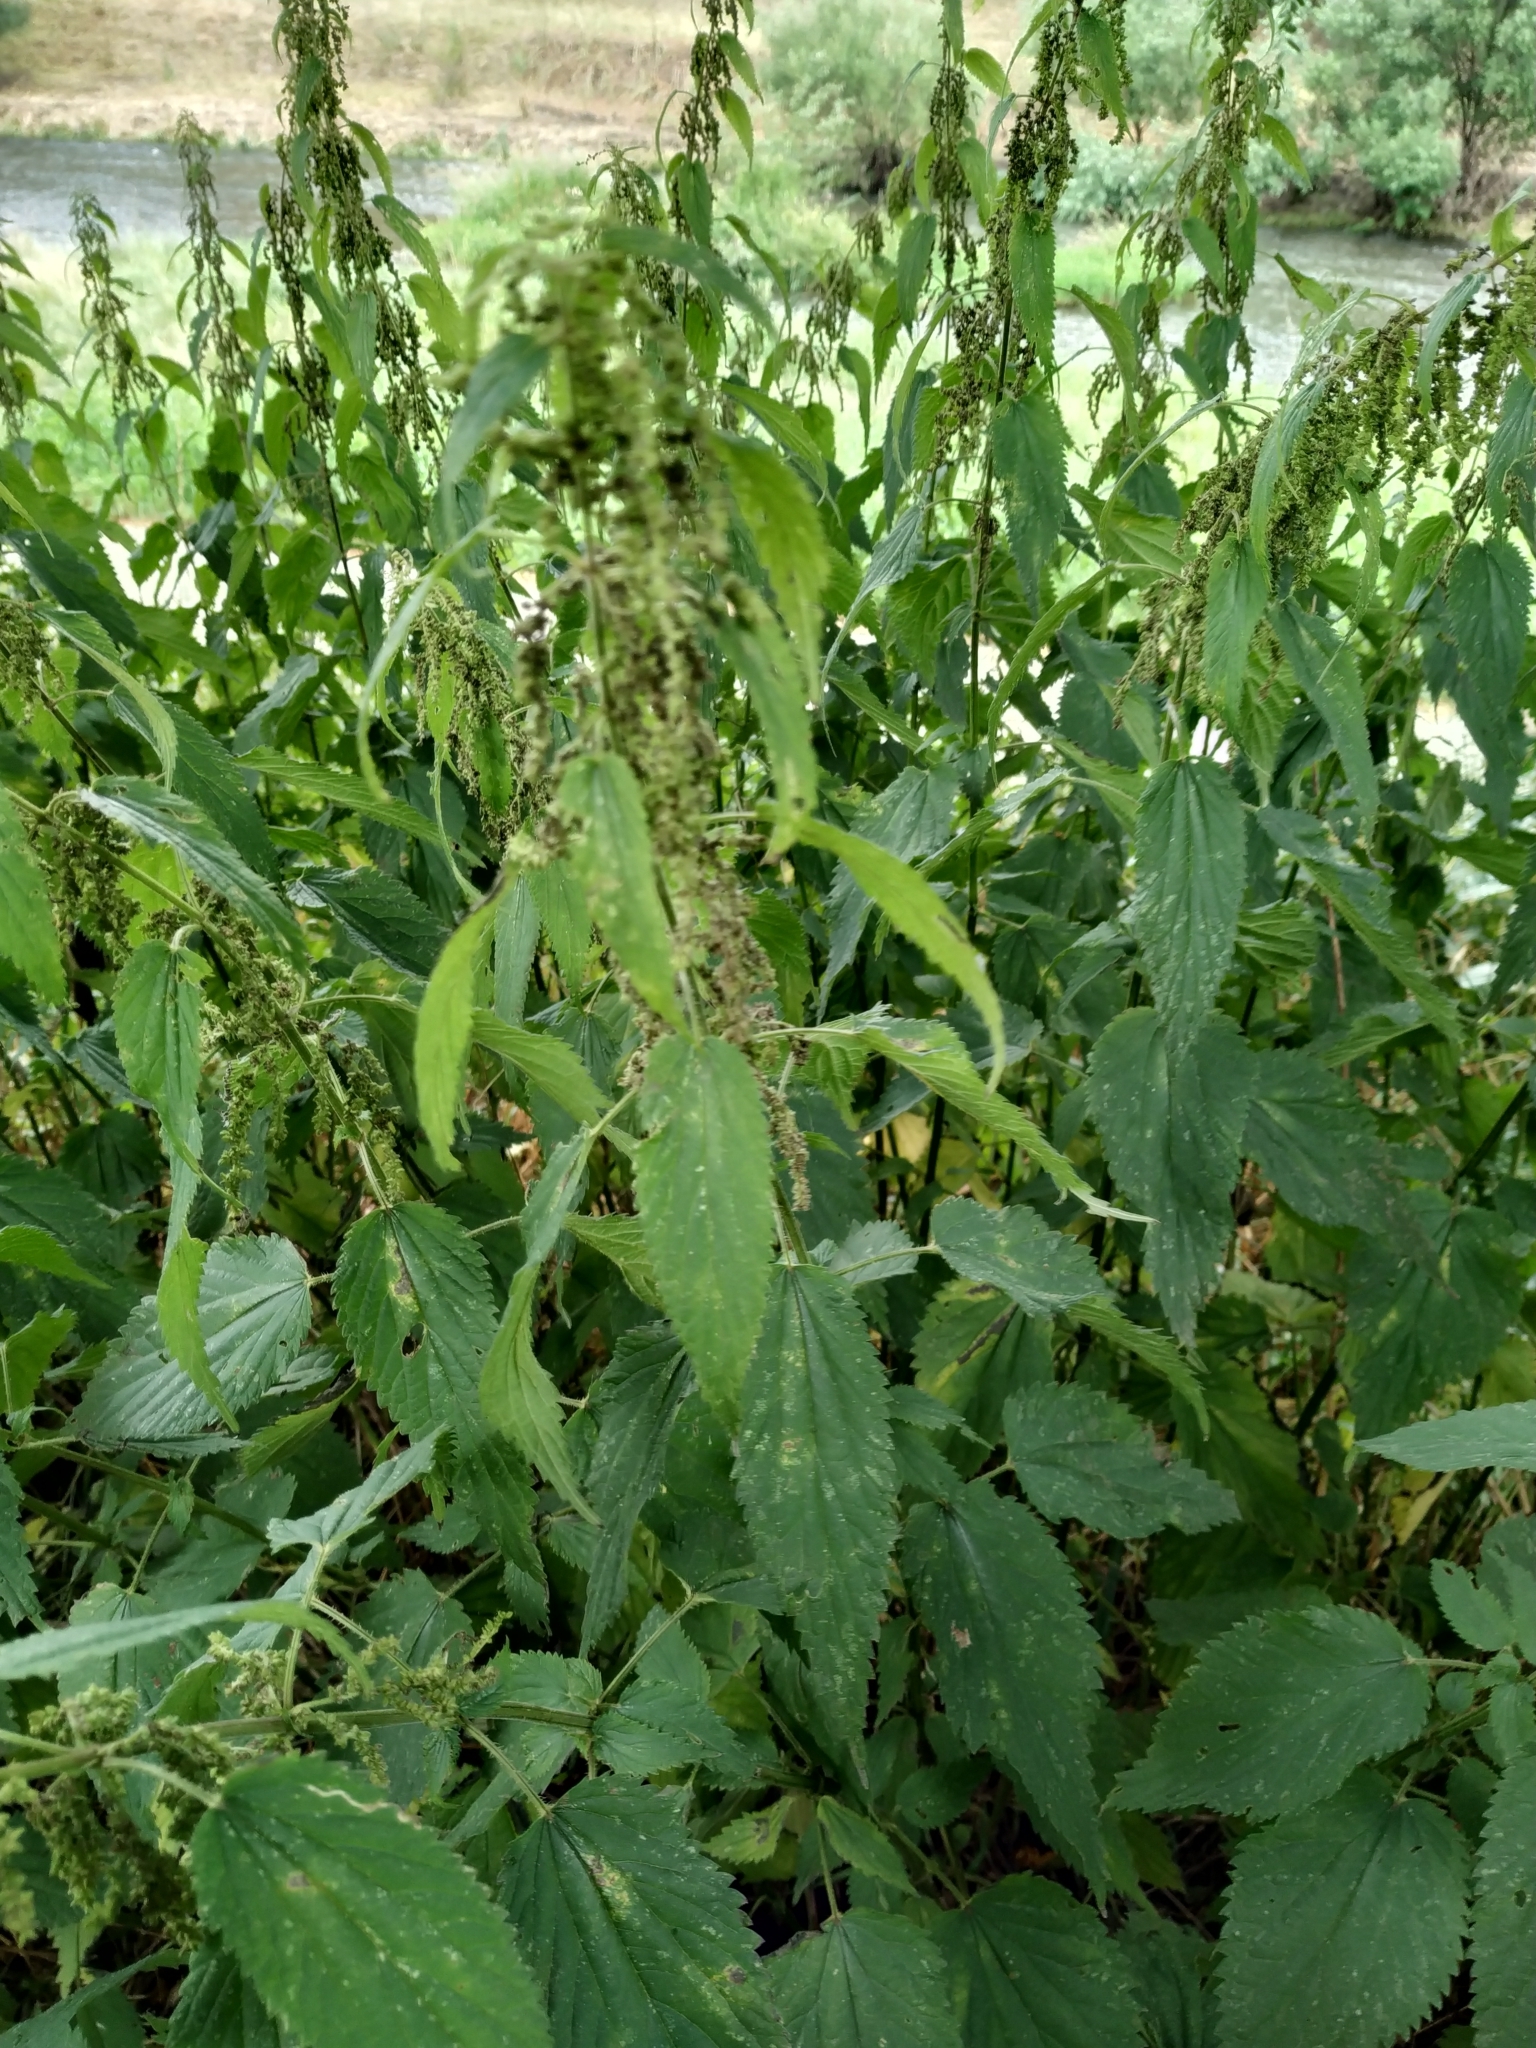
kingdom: Plantae
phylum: Tracheophyta
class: Magnoliopsida
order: Rosales
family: Urticaceae
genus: Urtica
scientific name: Urtica dioica
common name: Common nettle
